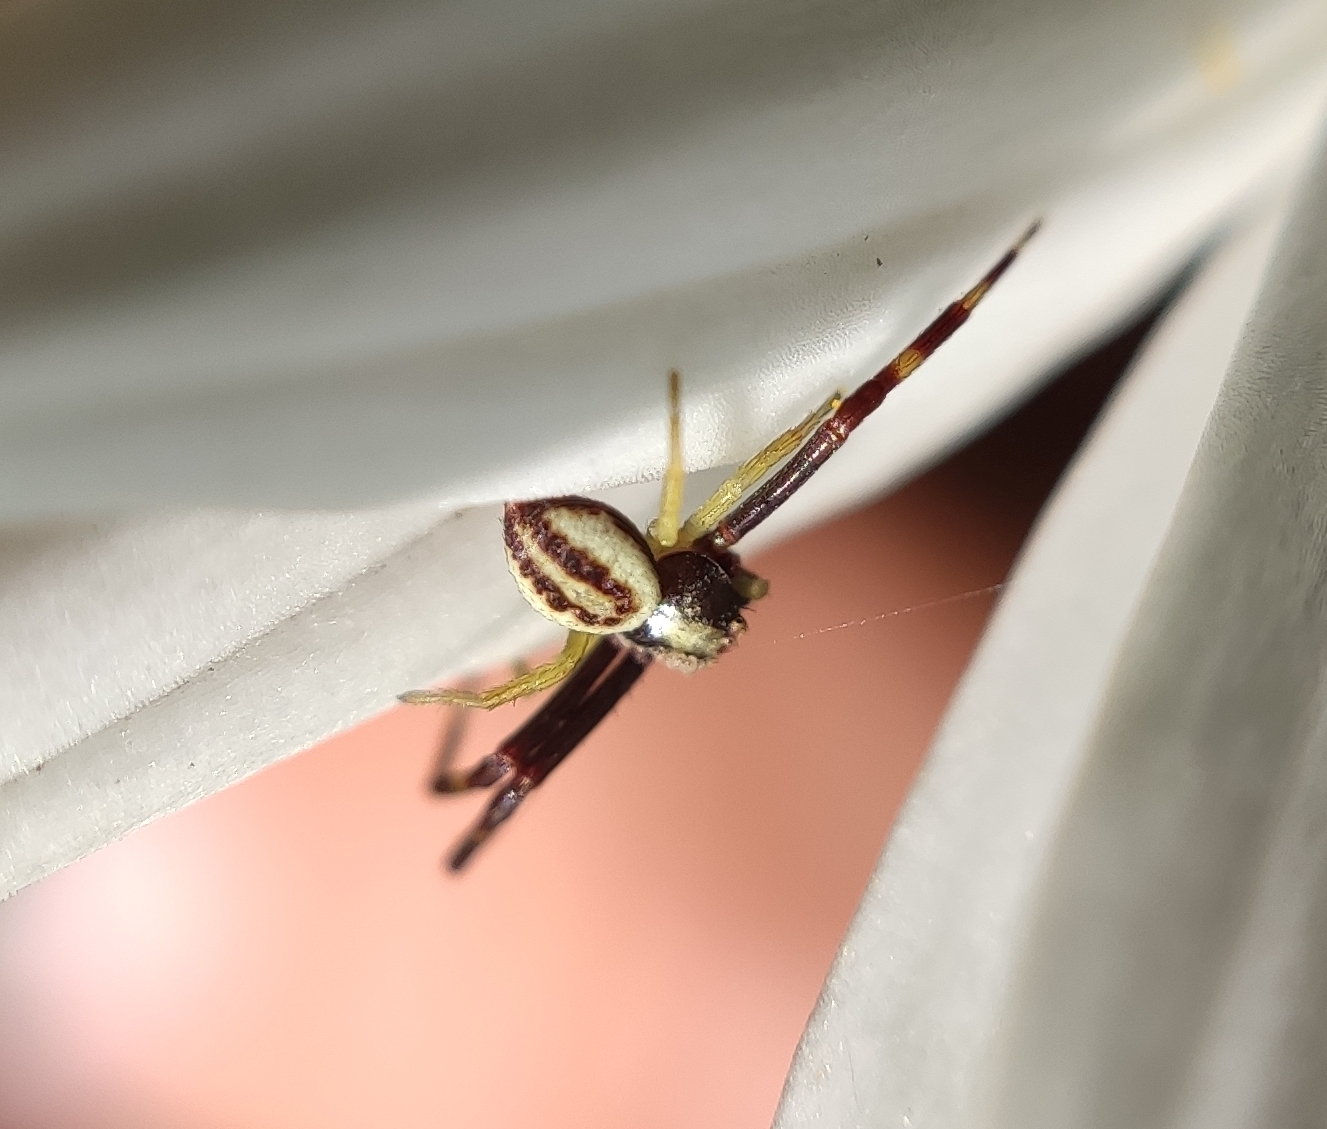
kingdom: Animalia
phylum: Arthropoda
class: Arachnida
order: Araneae
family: Thomisidae
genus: Misumena
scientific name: Misumena vatia
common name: Goldenrod crab spider
